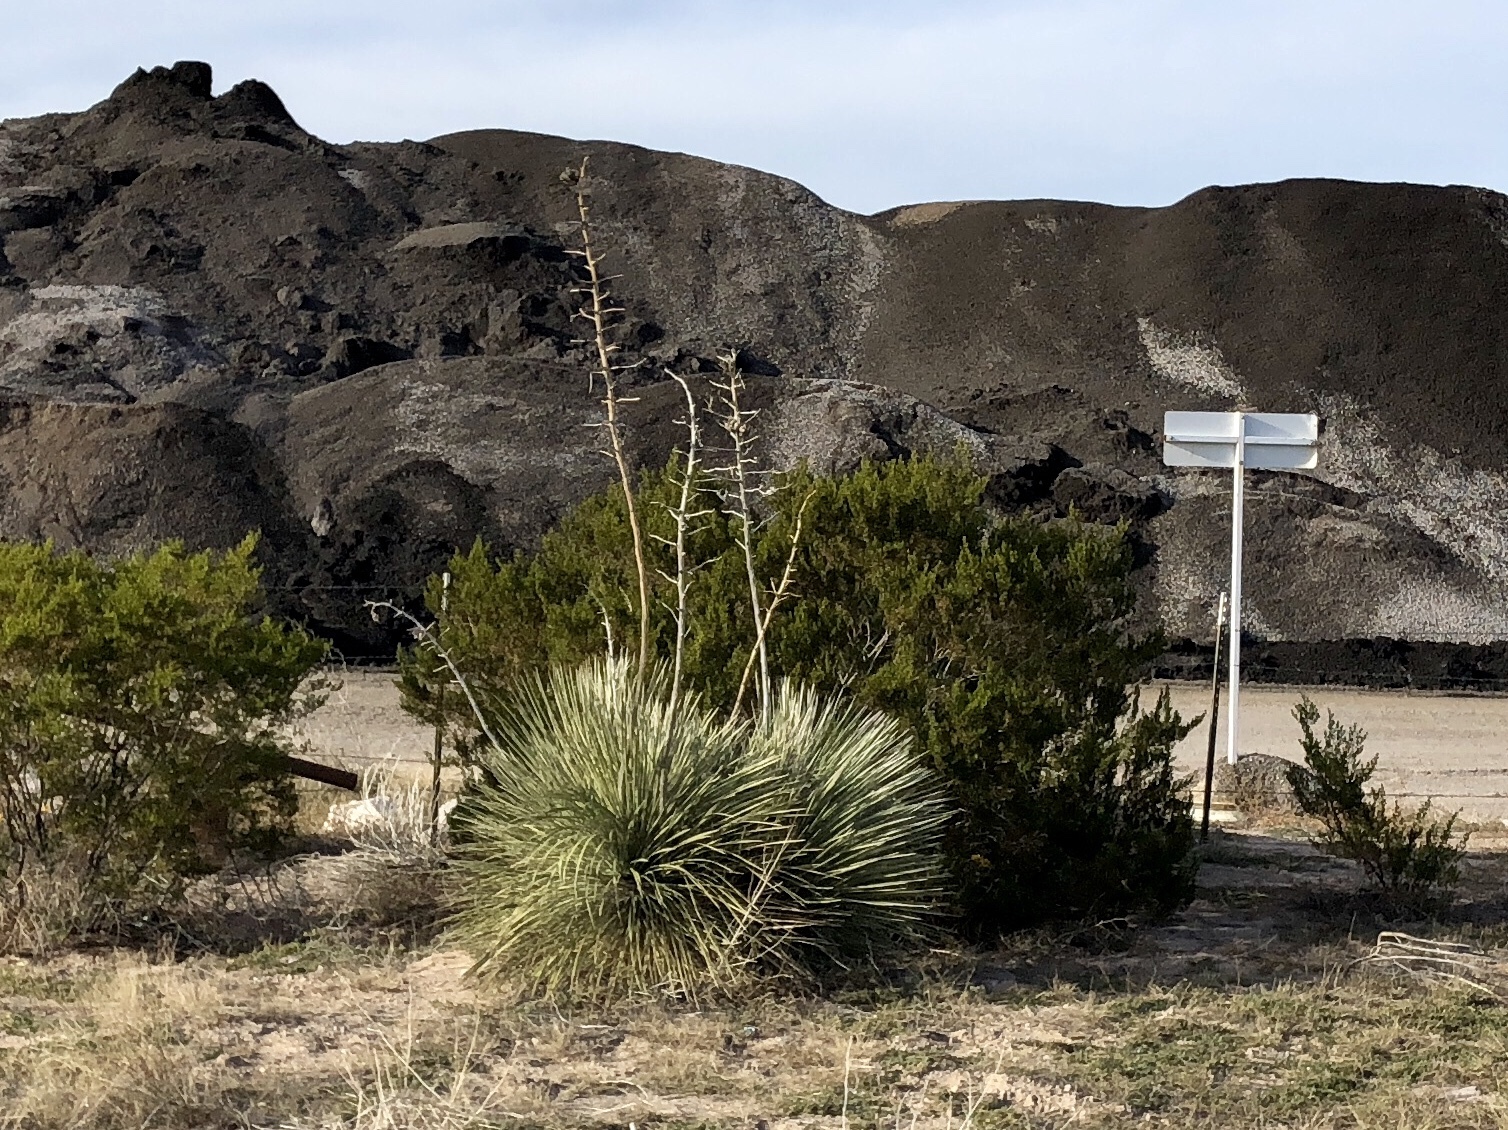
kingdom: Plantae
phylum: Tracheophyta
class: Liliopsida
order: Asparagales
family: Asparagaceae
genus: Yucca
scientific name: Yucca elata
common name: Palmella
